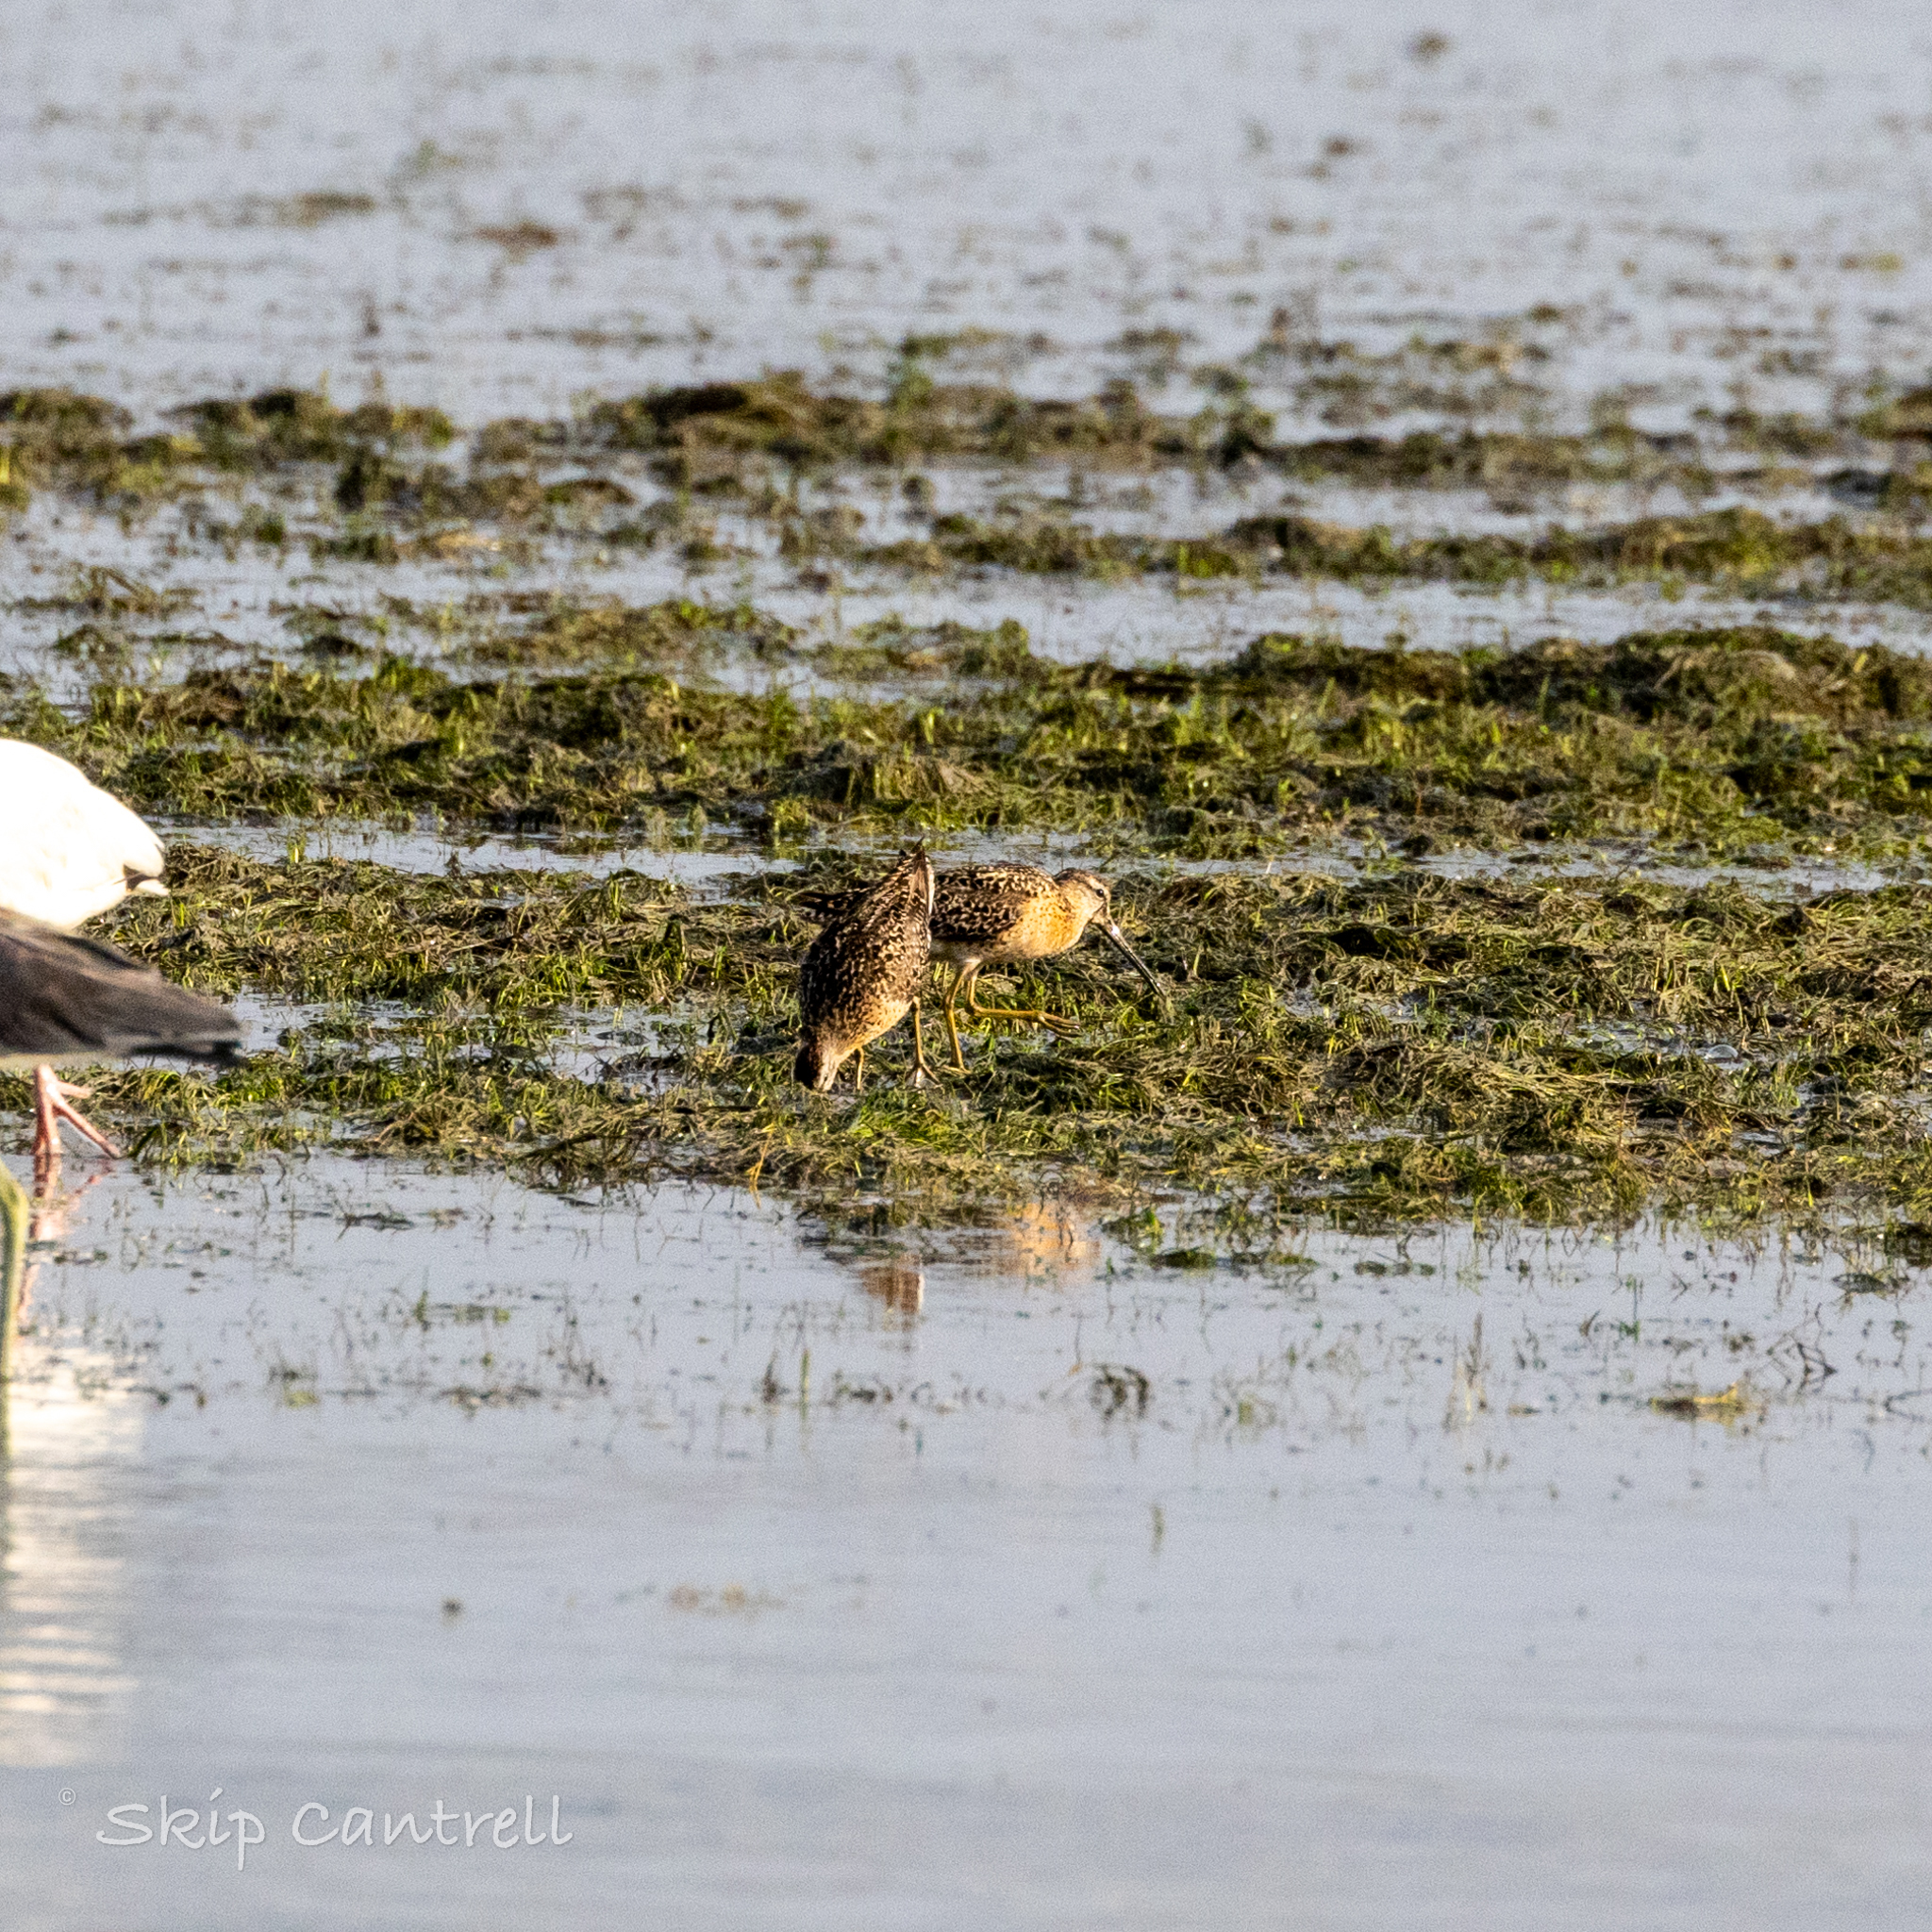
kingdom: Animalia
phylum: Chordata
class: Aves
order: Charadriiformes
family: Scolopacidae
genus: Limnodromus
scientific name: Limnodromus griseus
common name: Short-billed dowitcher
